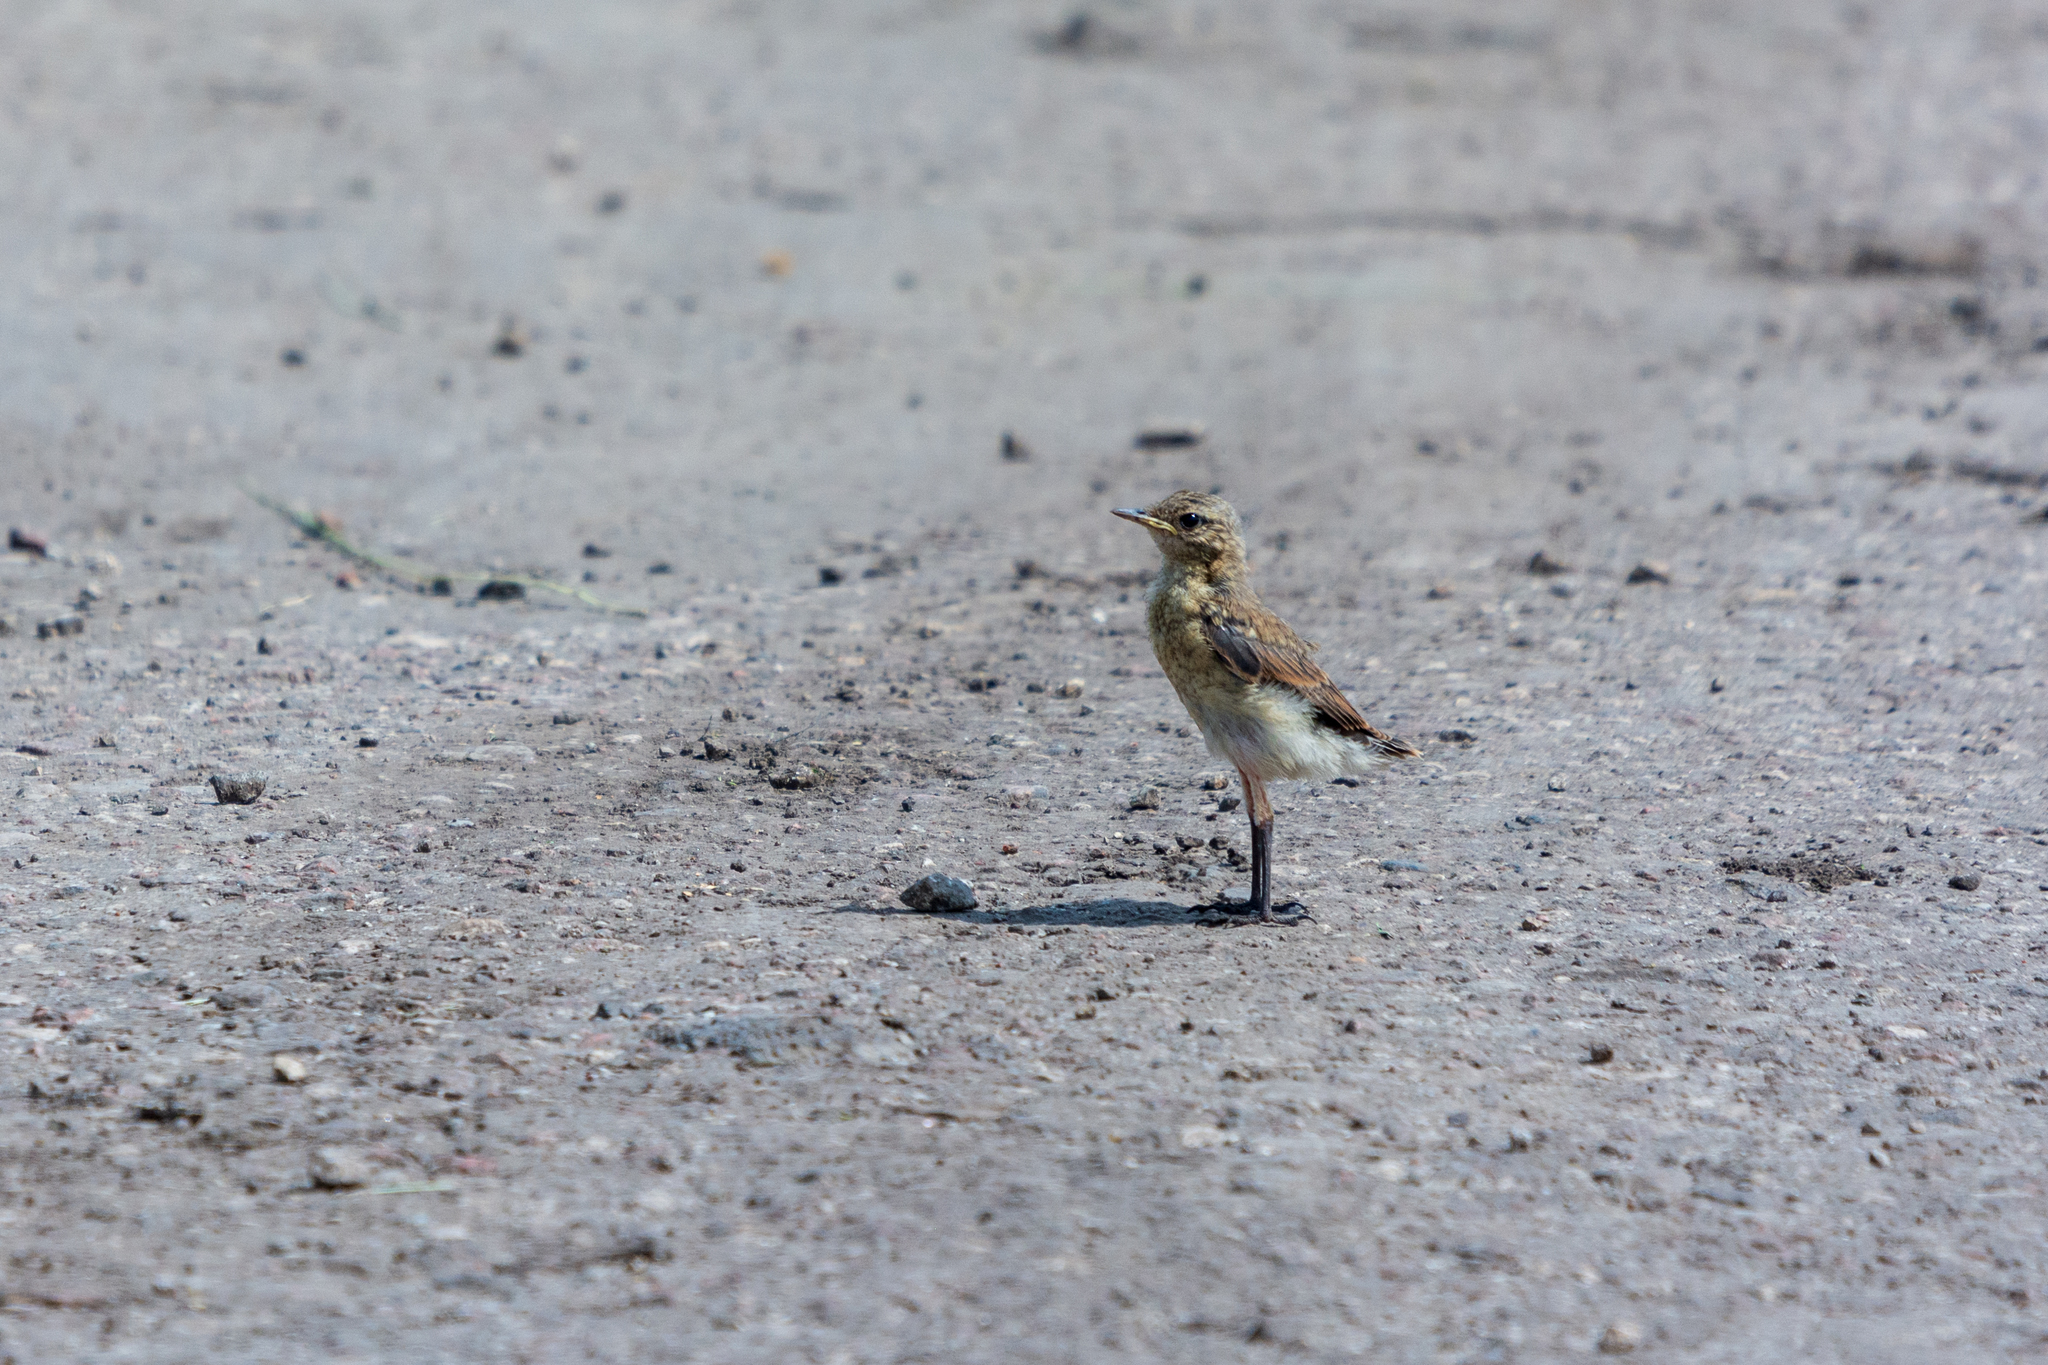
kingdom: Animalia
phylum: Chordata
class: Aves
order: Passeriformes
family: Muscicapidae
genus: Oenanthe
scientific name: Oenanthe oenanthe
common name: Northern wheatear
